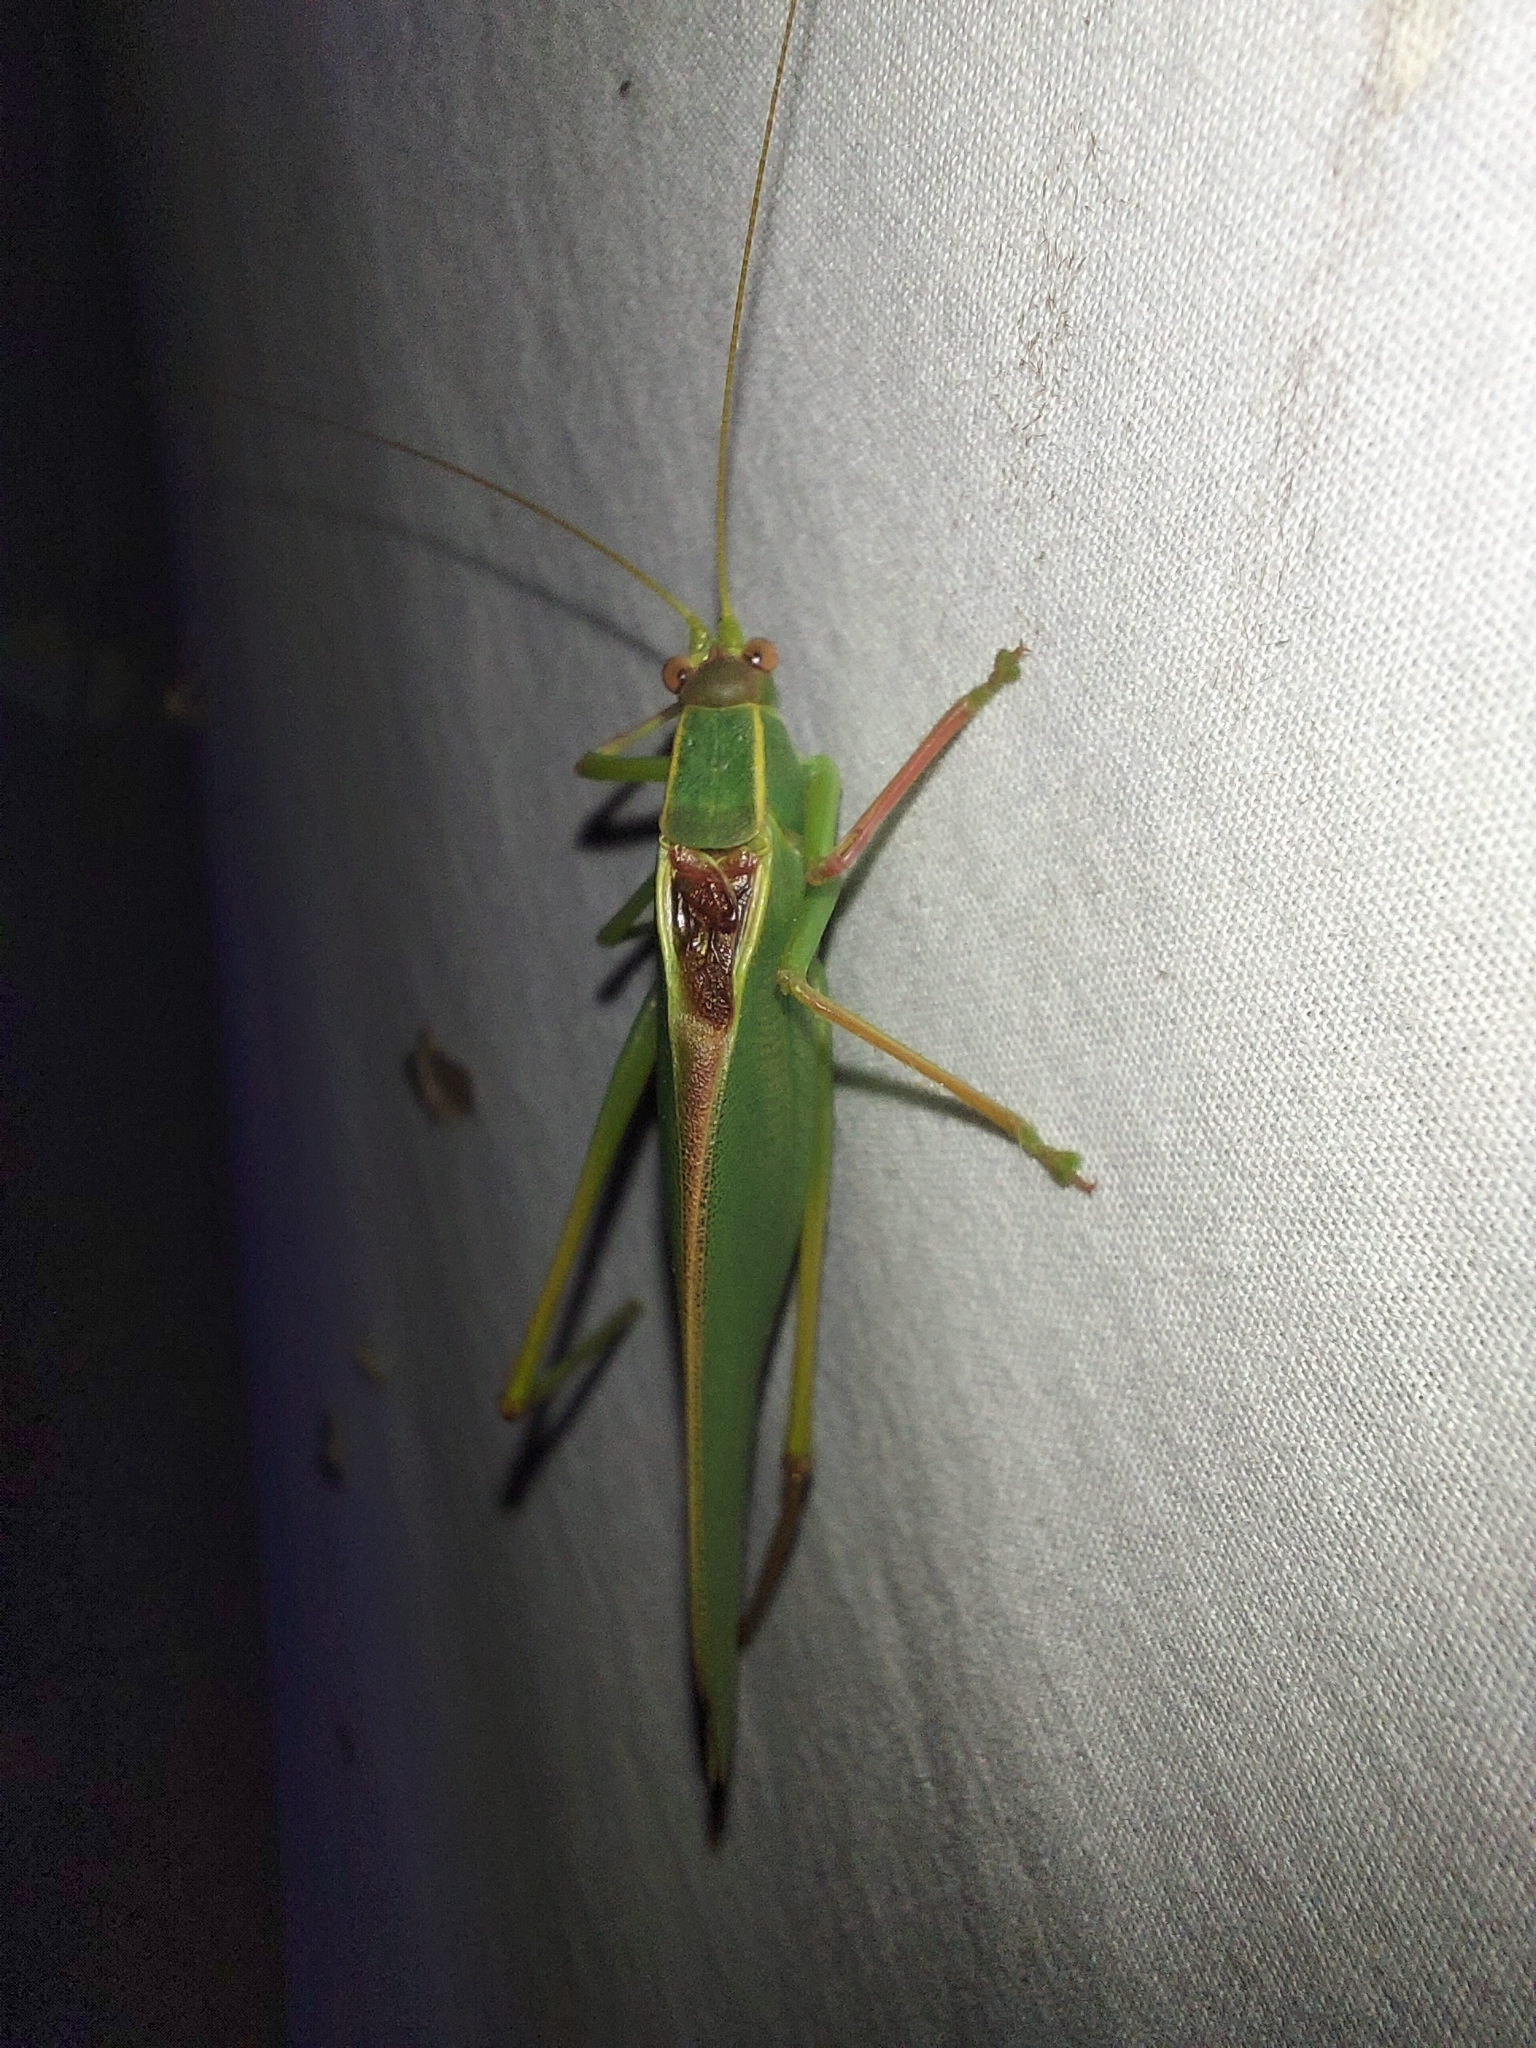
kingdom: Animalia
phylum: Arthropoda
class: Insecta
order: Orthoptera
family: Tettigoniidae
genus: Torbia
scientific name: Torbia viridissima
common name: Non-predaceous gum leaf katydid
